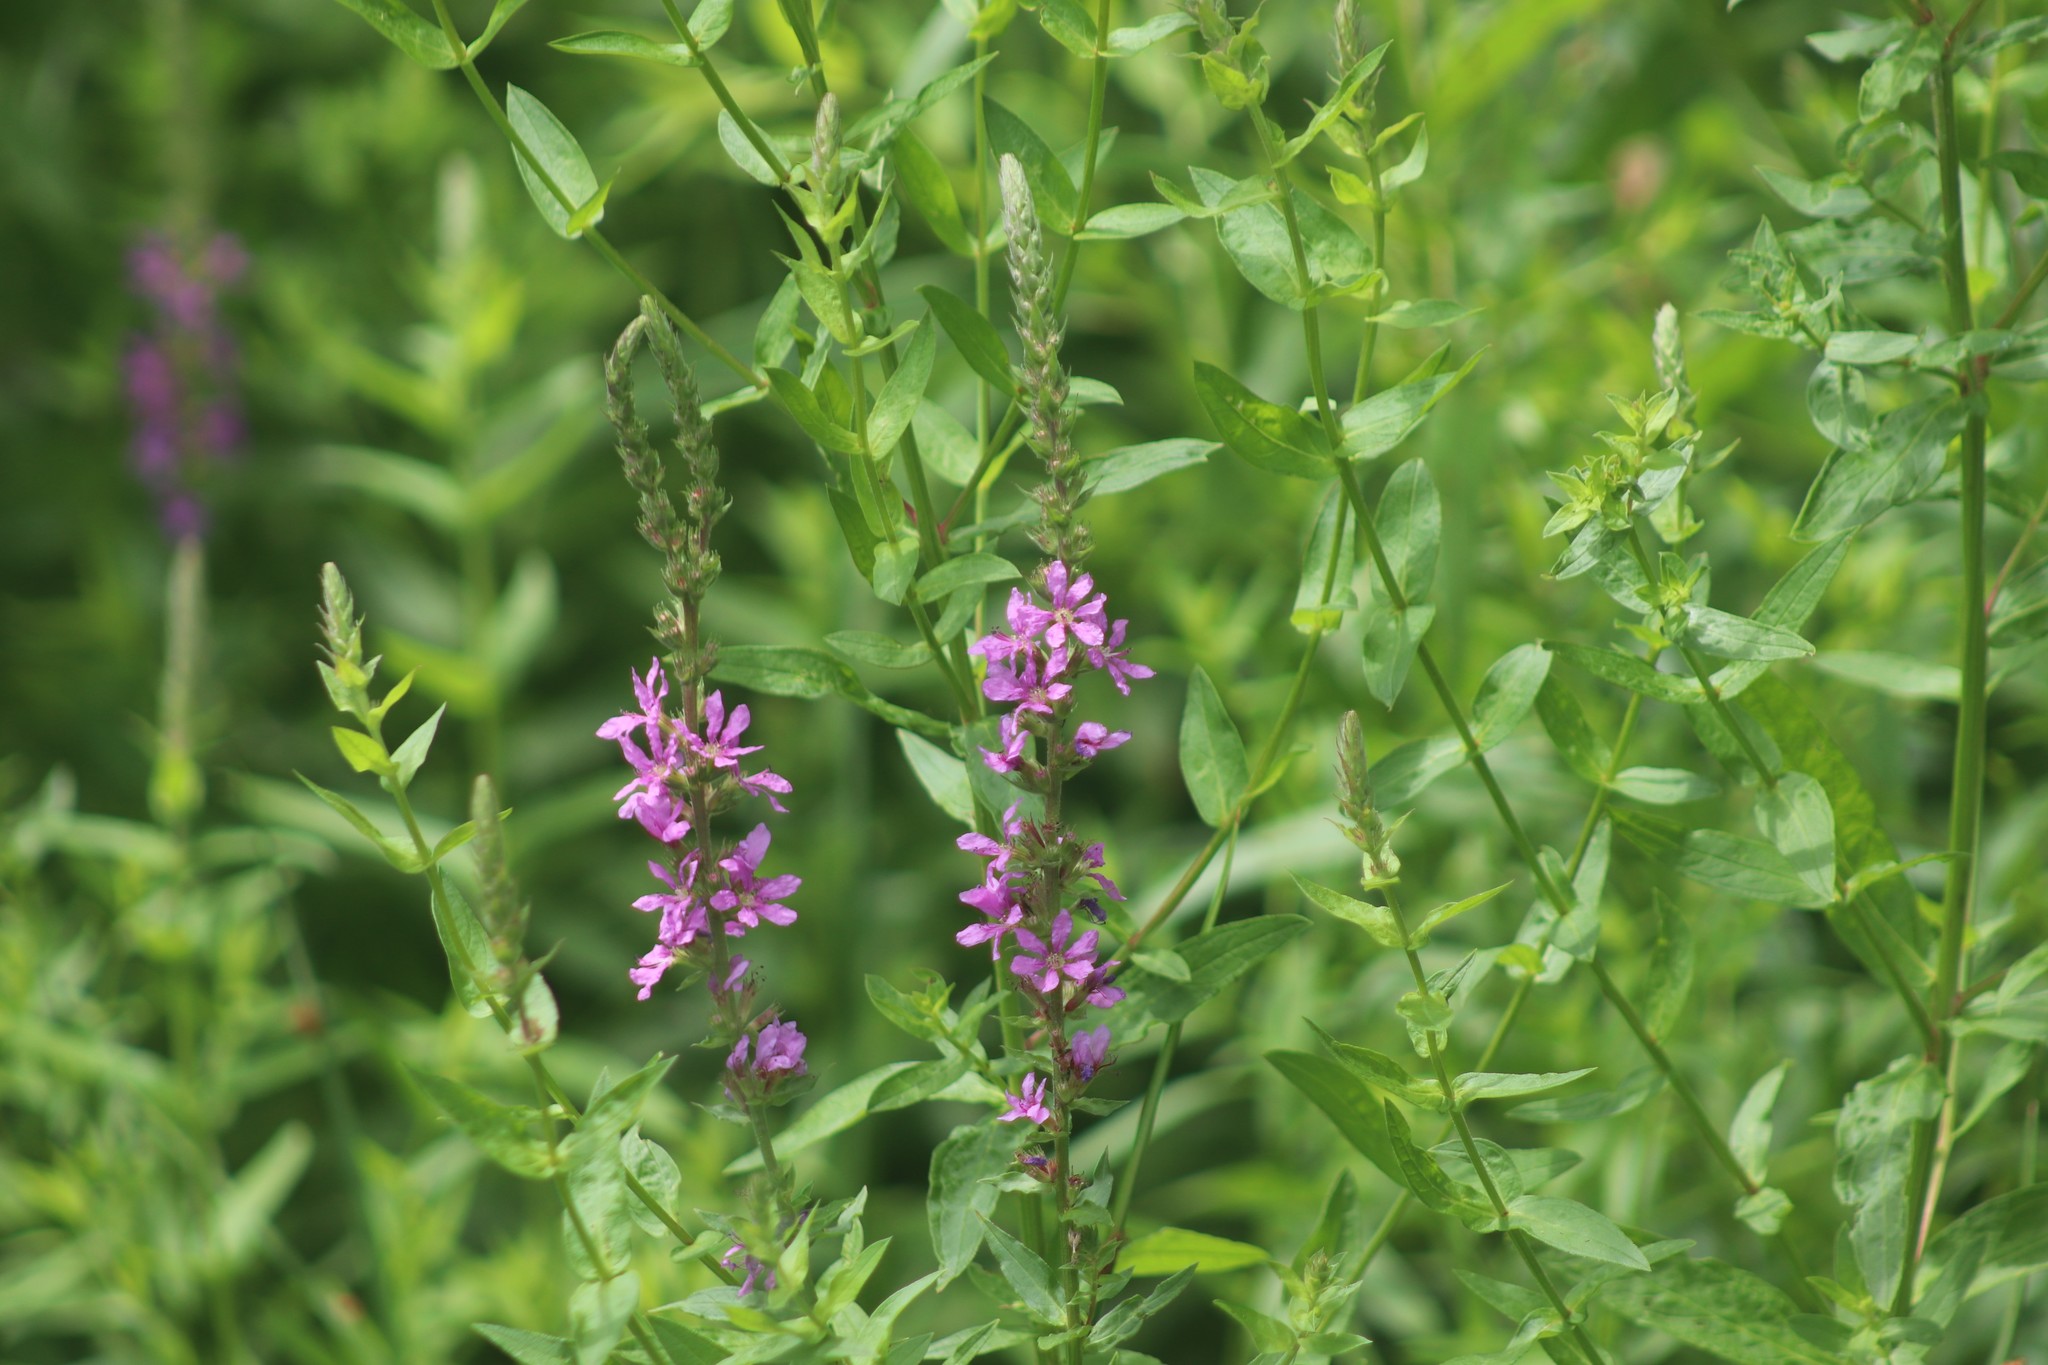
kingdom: Plantae
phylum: Tracheophyta
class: Magnoliopsida
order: Myrtales
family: Lythraceae
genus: Lythrum
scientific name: Lythrum salicaria
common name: Purple loosestrife
